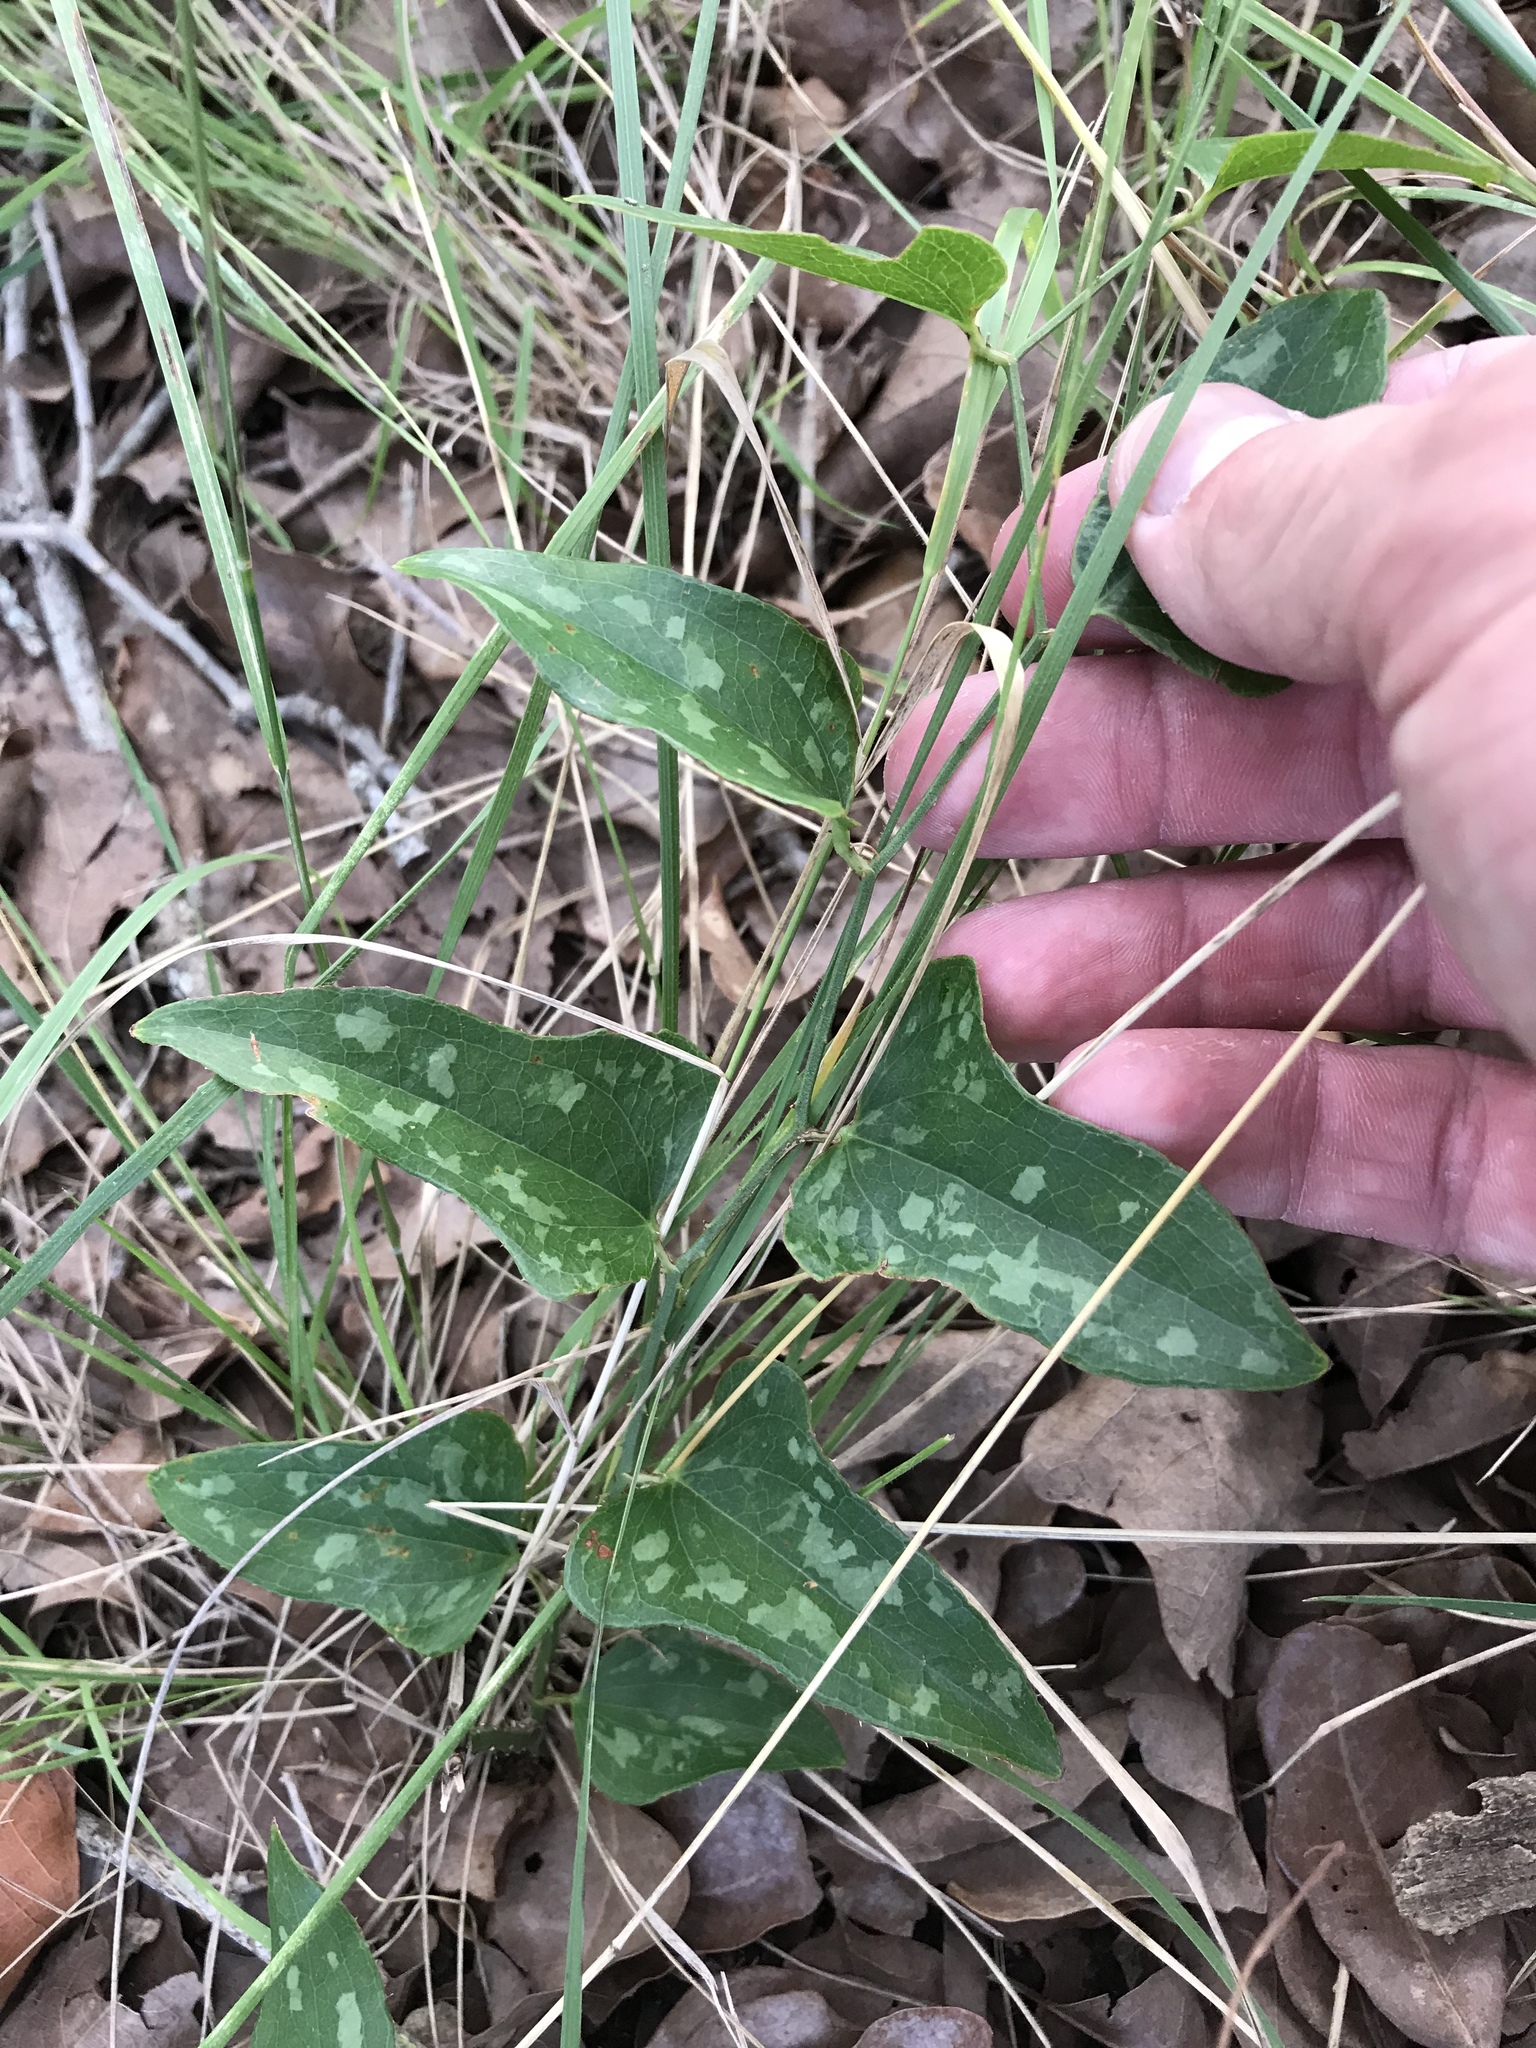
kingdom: Plantae
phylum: Tracheophyta
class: Liliopsida
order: Liliales
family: Smilacaceae
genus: Smilax
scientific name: Smilax bona-nox
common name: Catbrier
